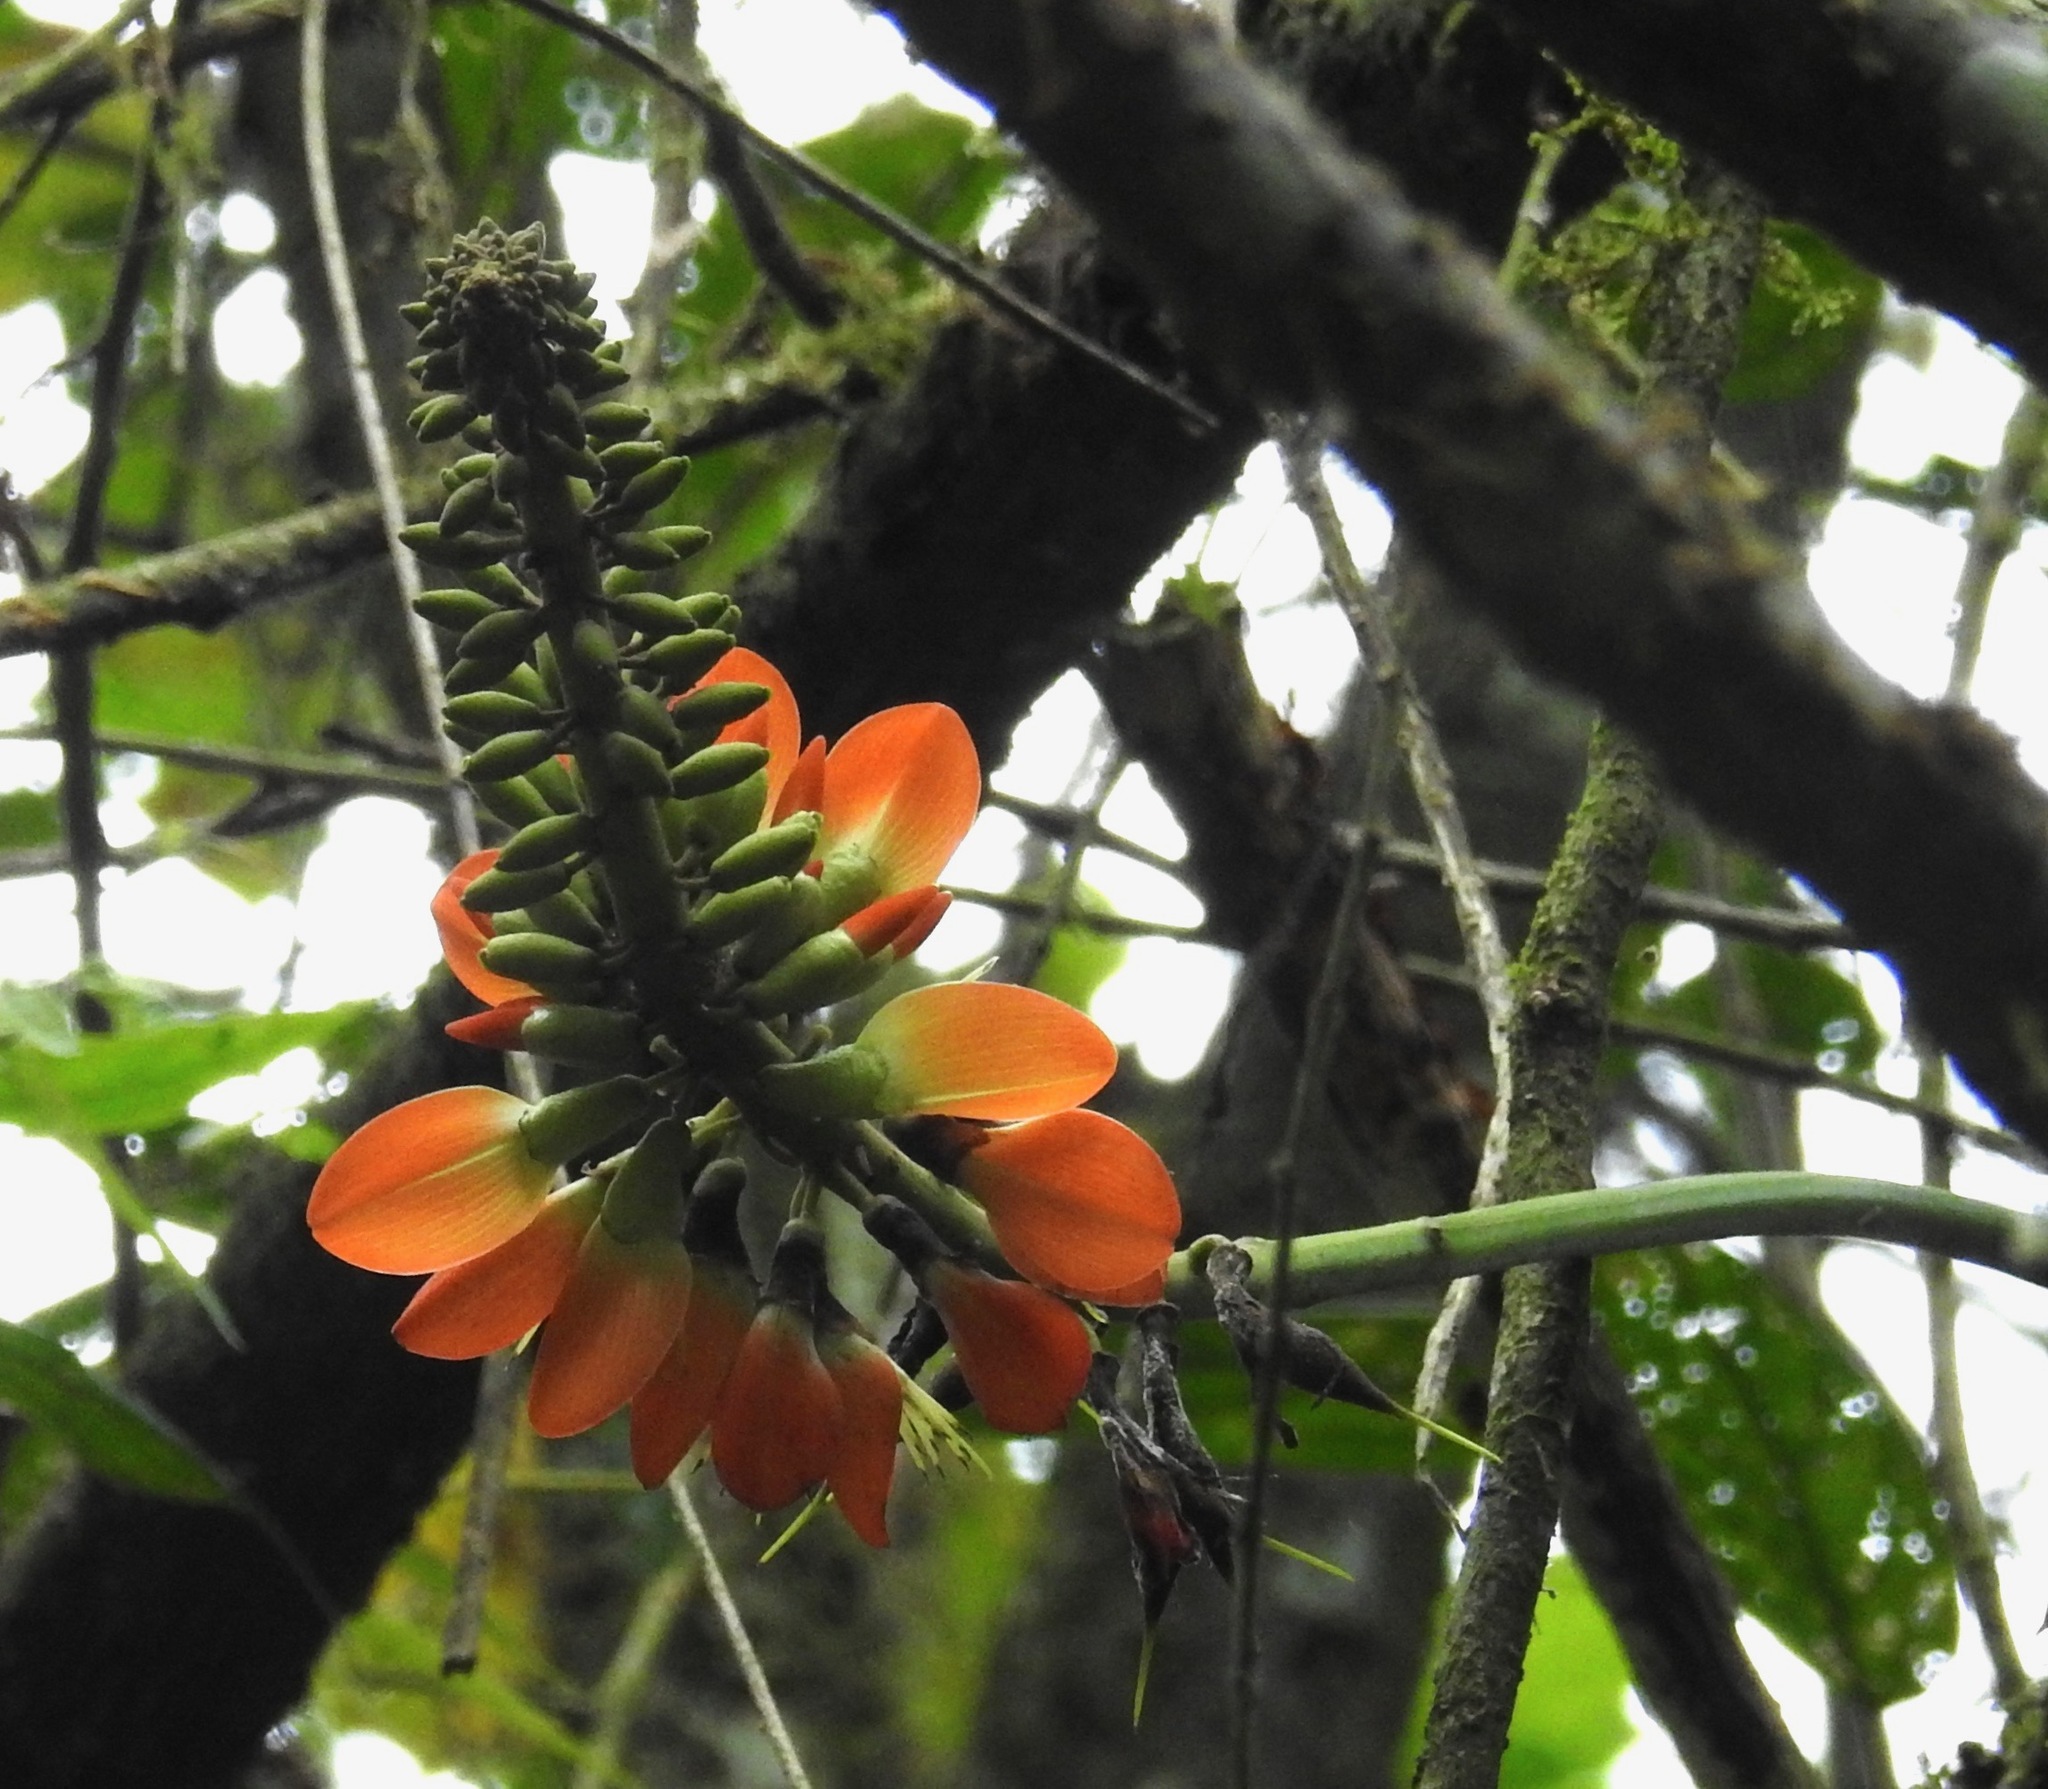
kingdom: Plantae
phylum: Tracheophyta
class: Magnoliopsida
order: Fabales
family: Fabaceae
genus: Erythrina
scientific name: Erythrina edulis
